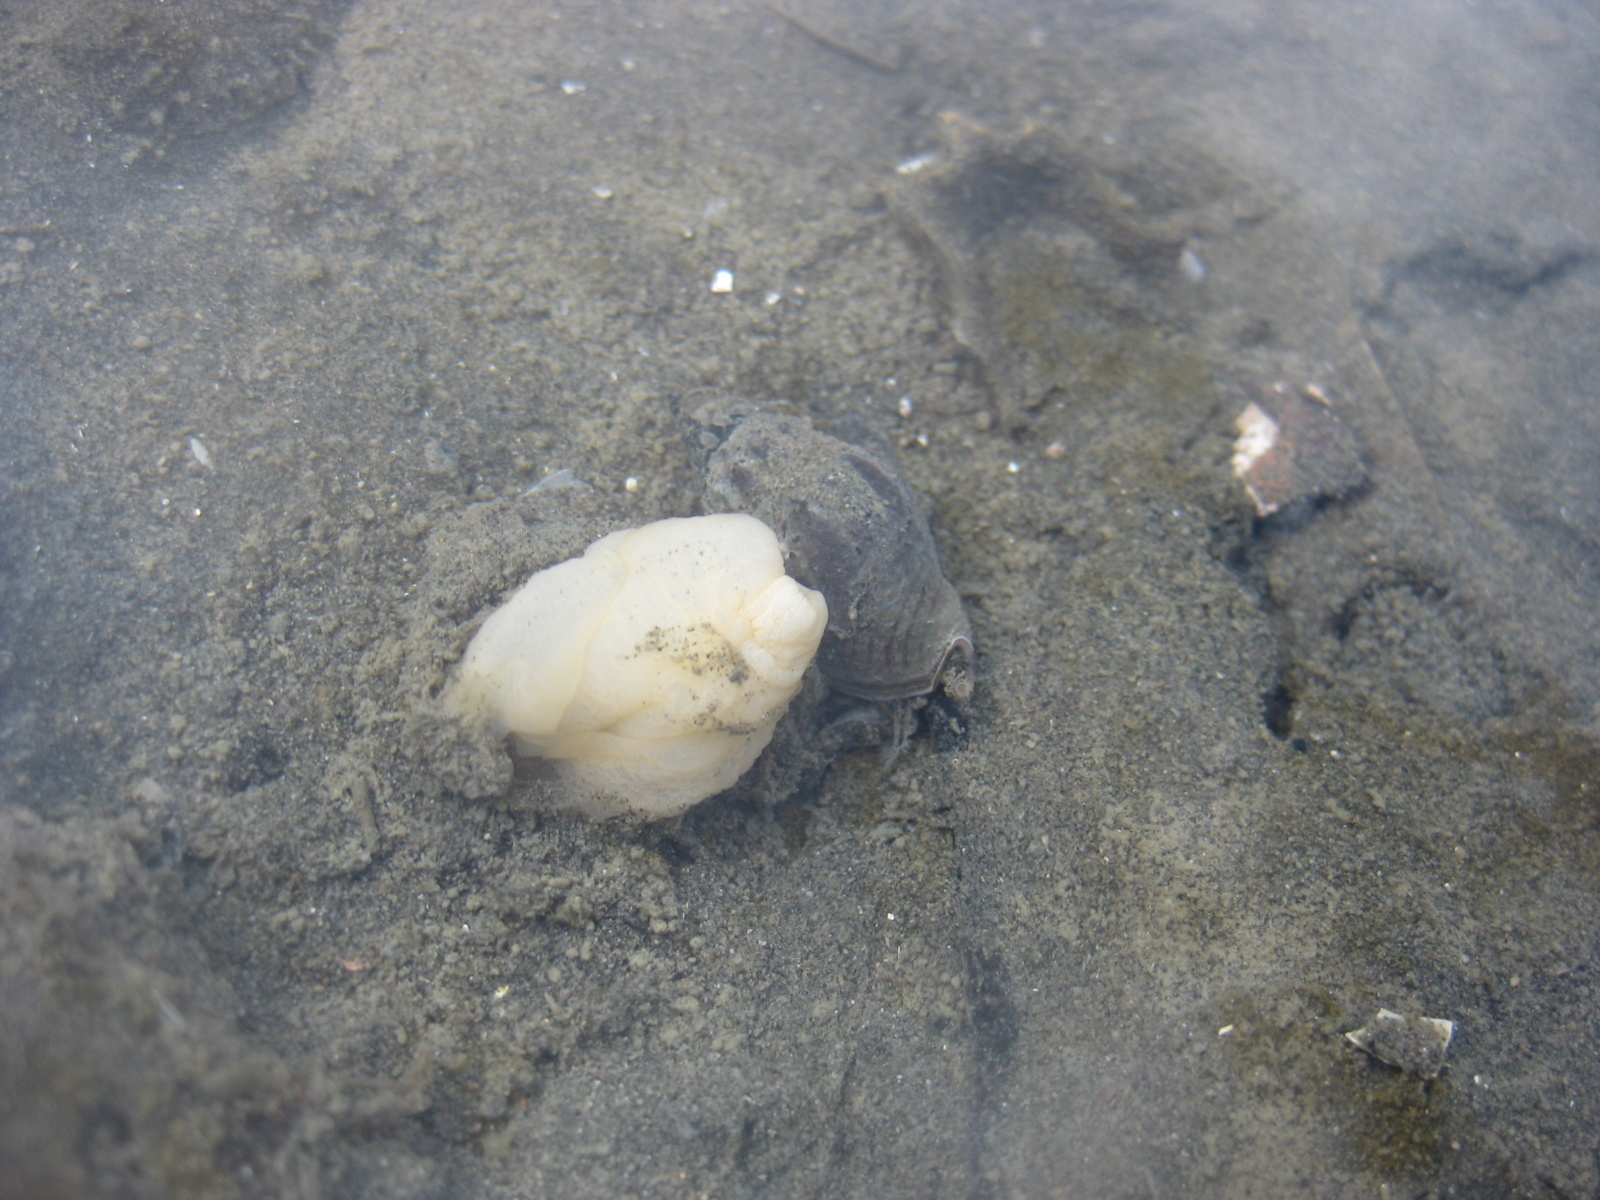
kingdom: Animalia
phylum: Mollusca
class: Gastropoda
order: Neogastropoda
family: Cominellidae
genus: Cominella
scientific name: Cominella glandiformis
